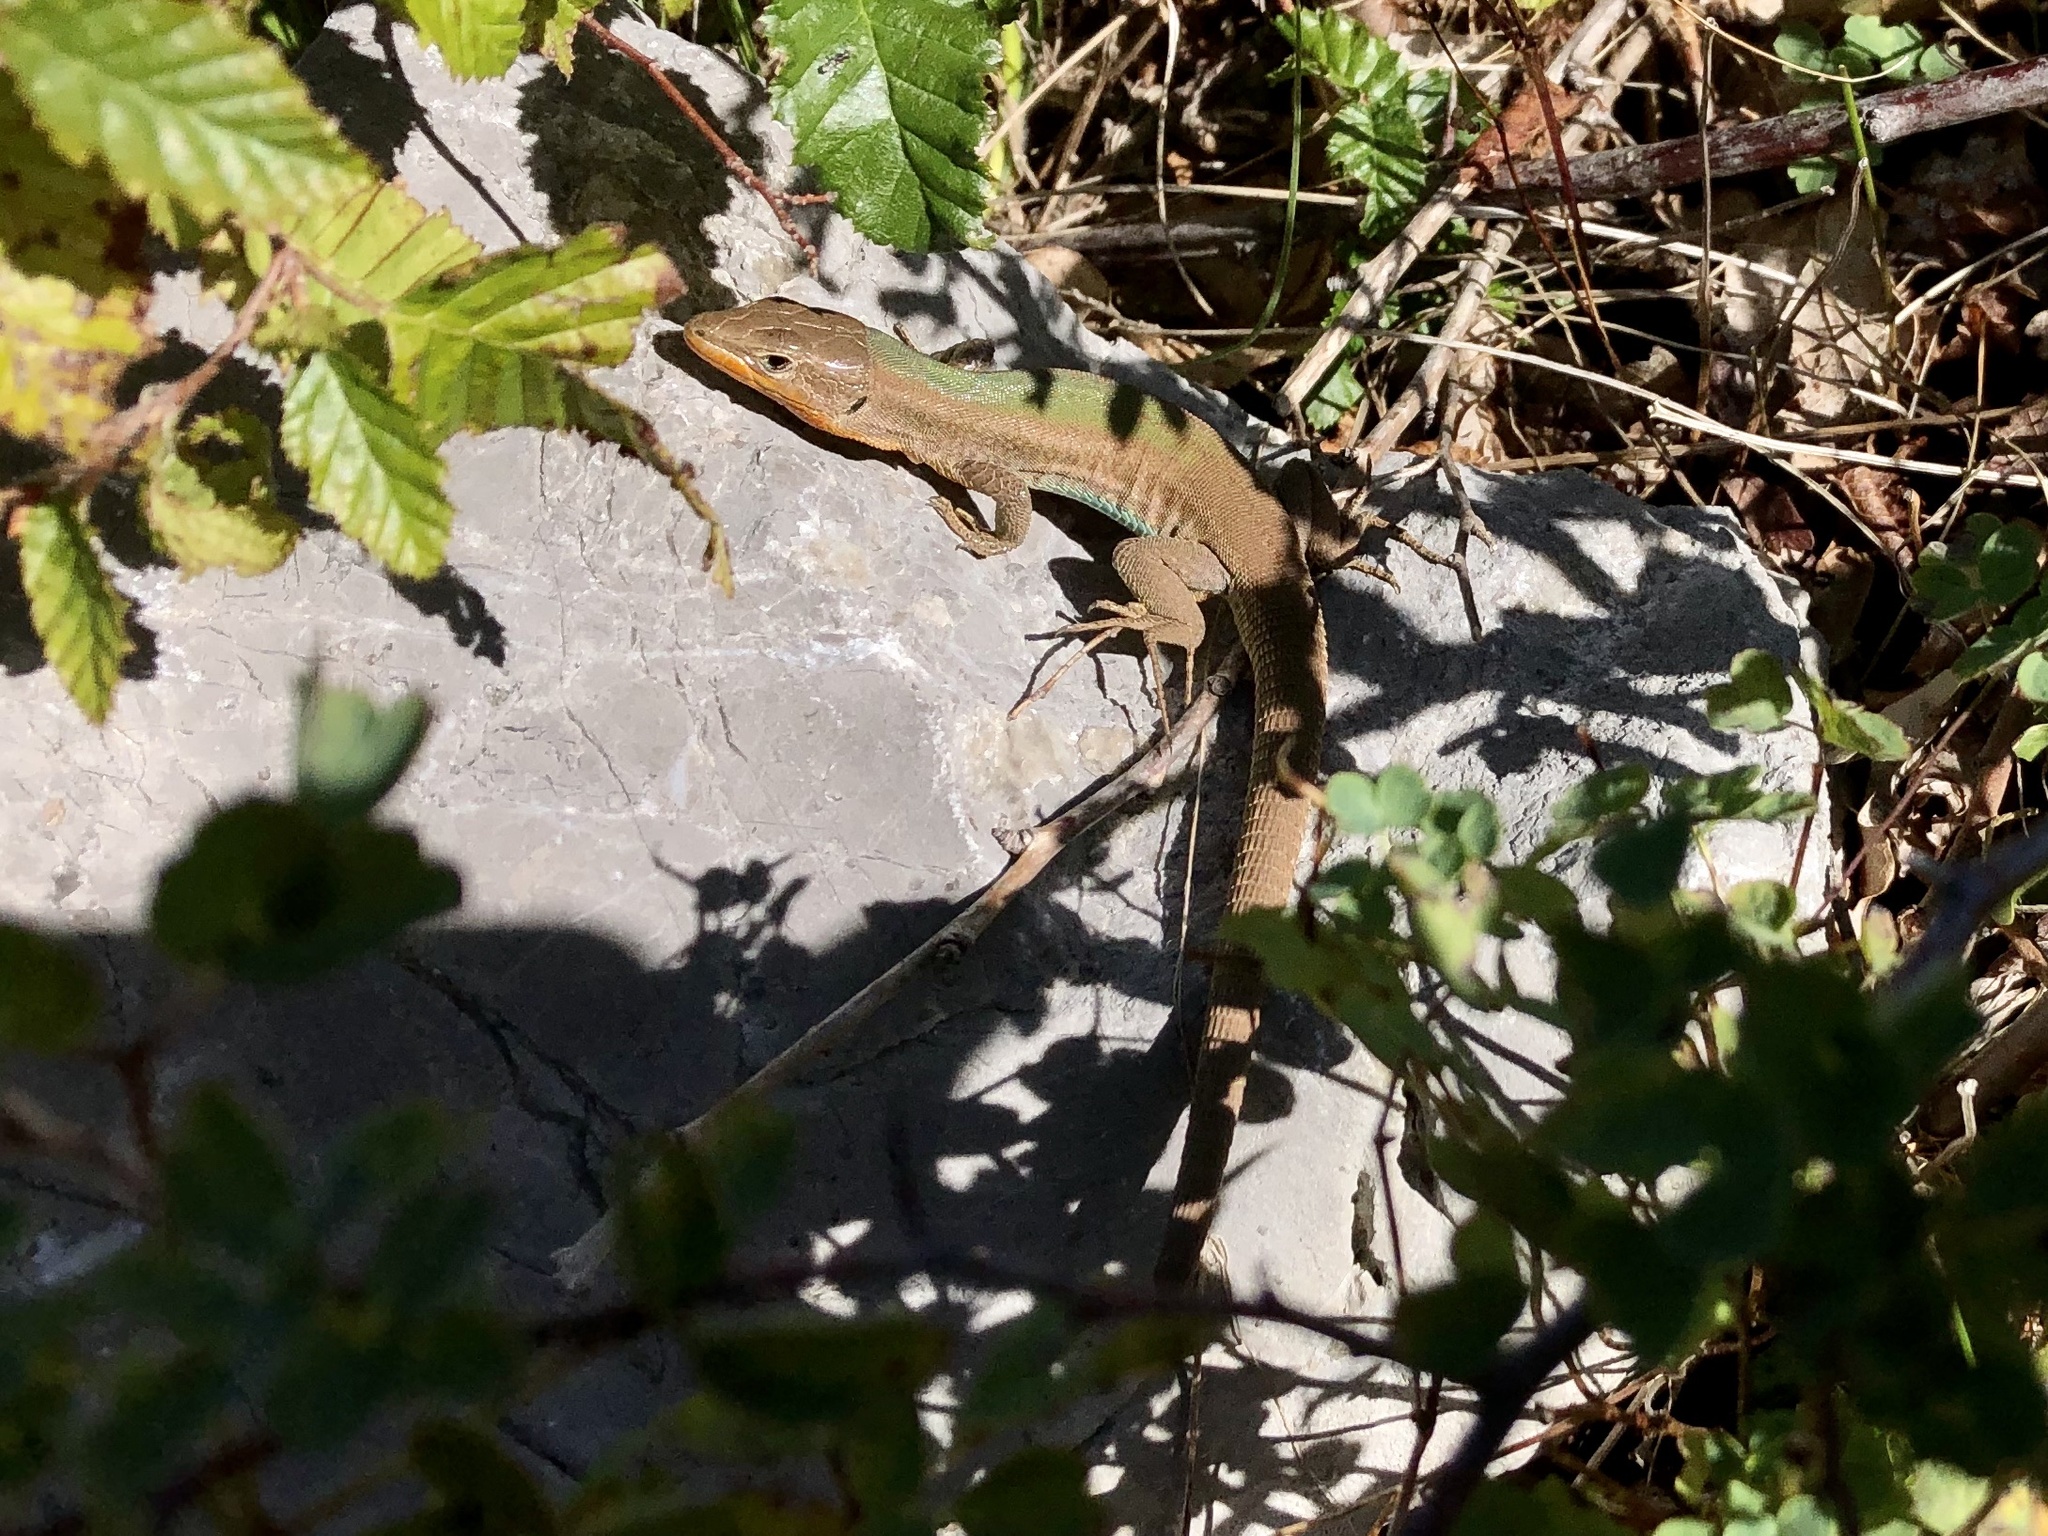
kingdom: Animalia
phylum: Chordata
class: Squamata
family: Lacertidae
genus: Podarcis
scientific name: Podarcis melisellensis
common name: Dalmatian wall lizard
